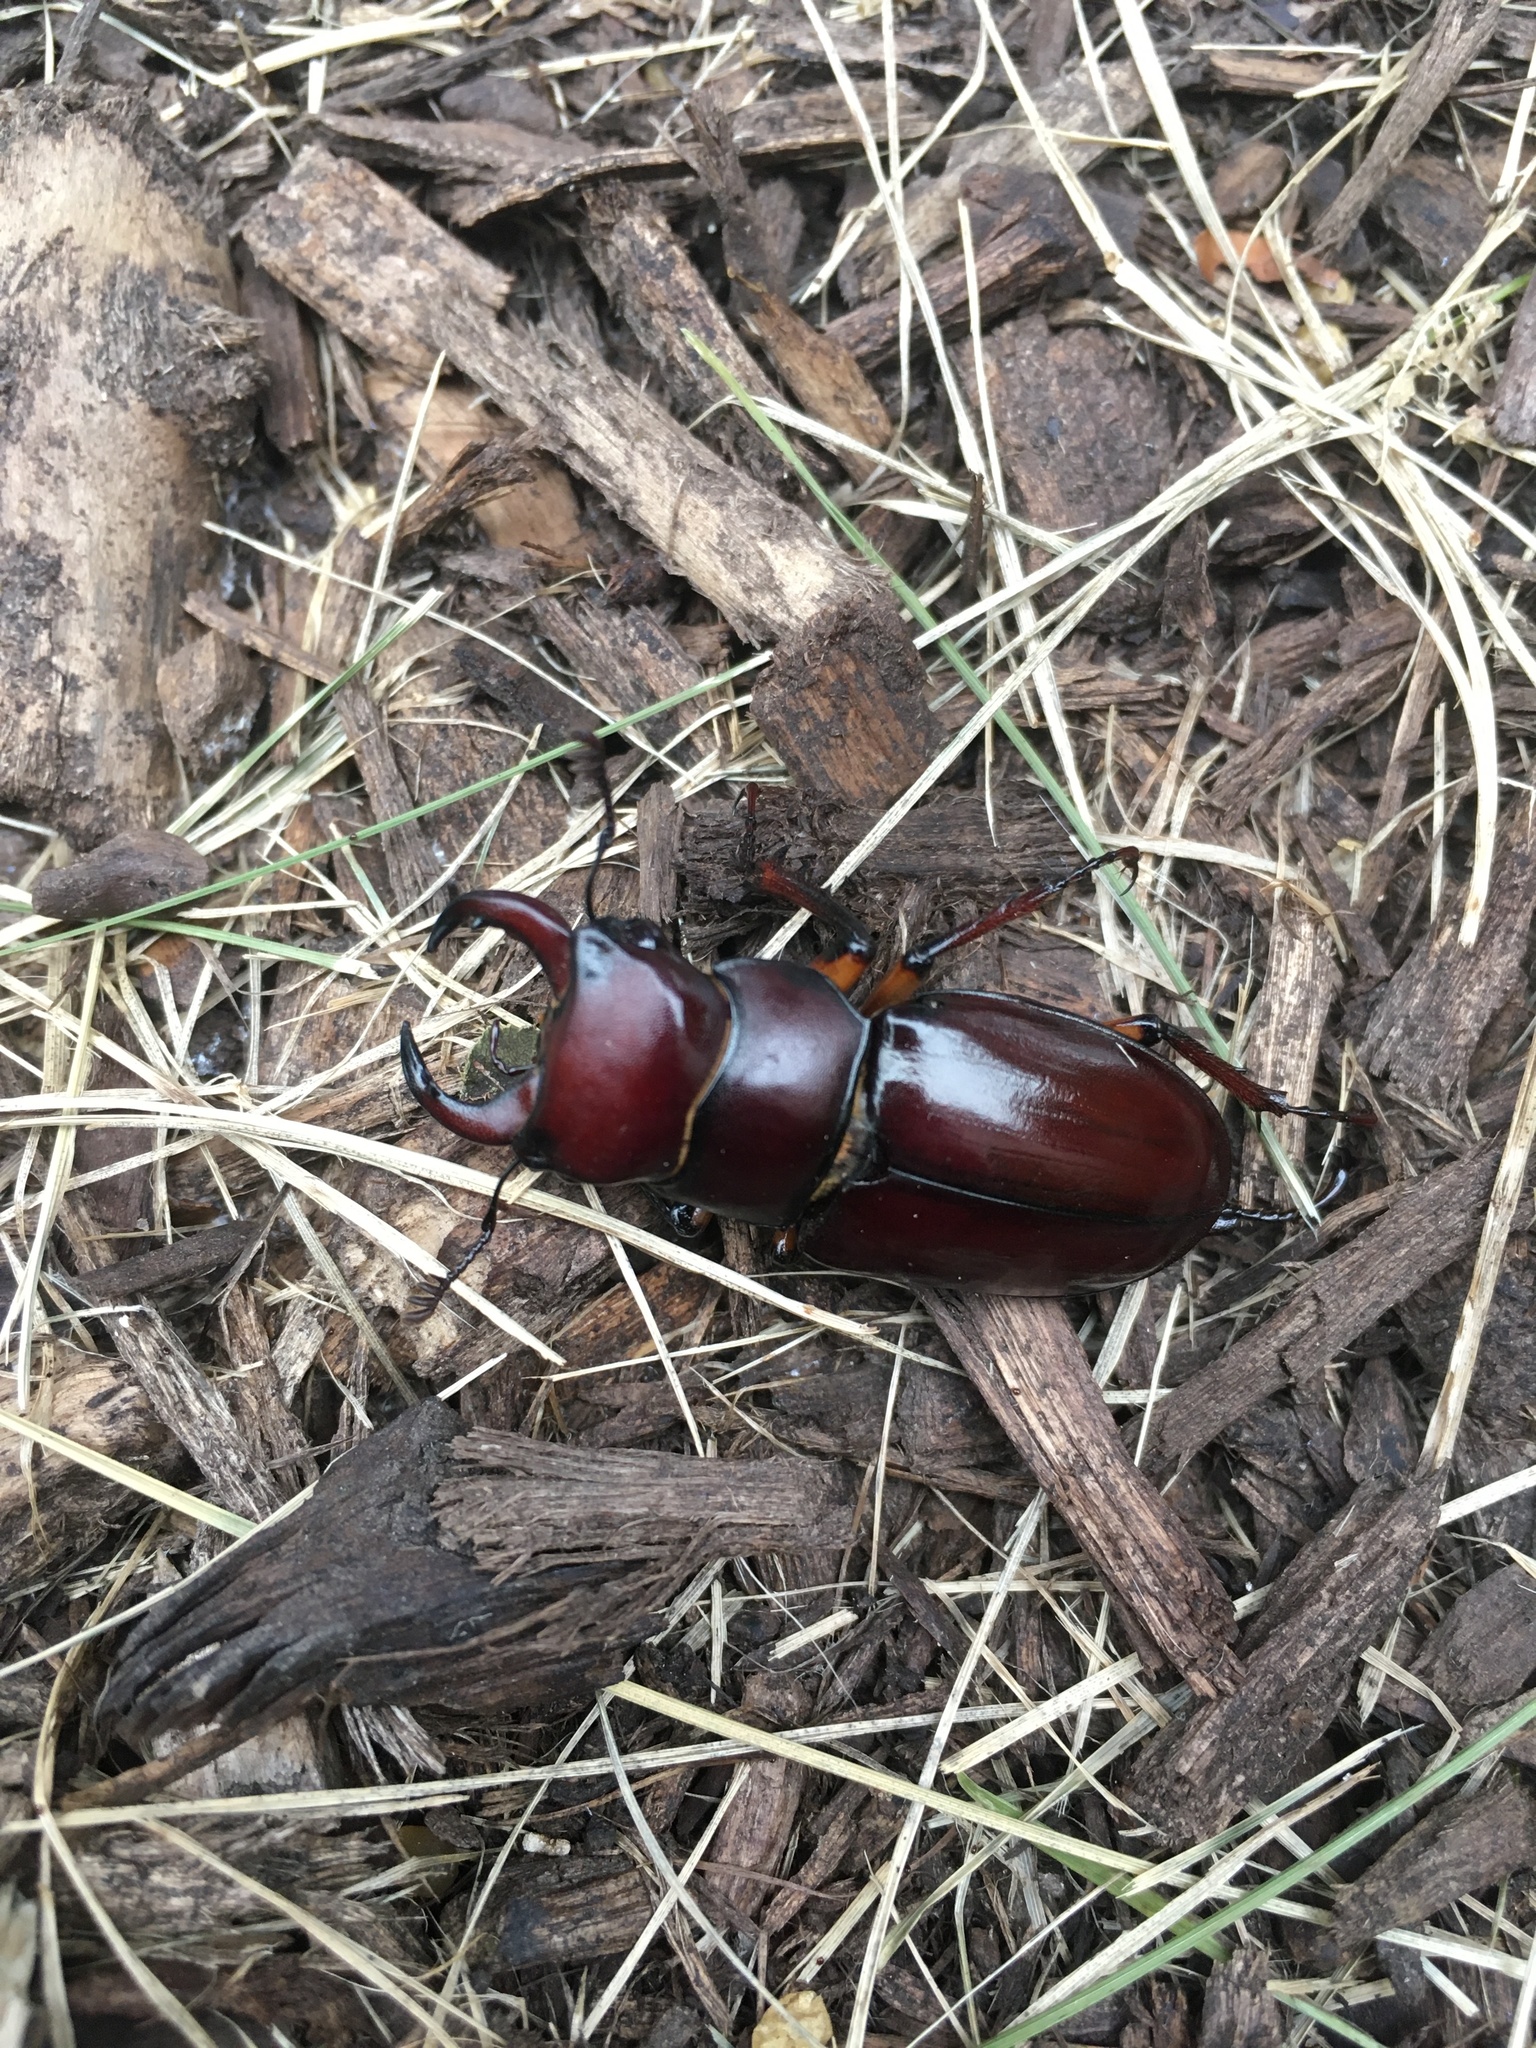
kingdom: Animalia
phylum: Arthropoda
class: Insecta
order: Coleoptera
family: Lucanidae
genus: Lucanus
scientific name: Lucanus capreolus
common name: Stag beetle
